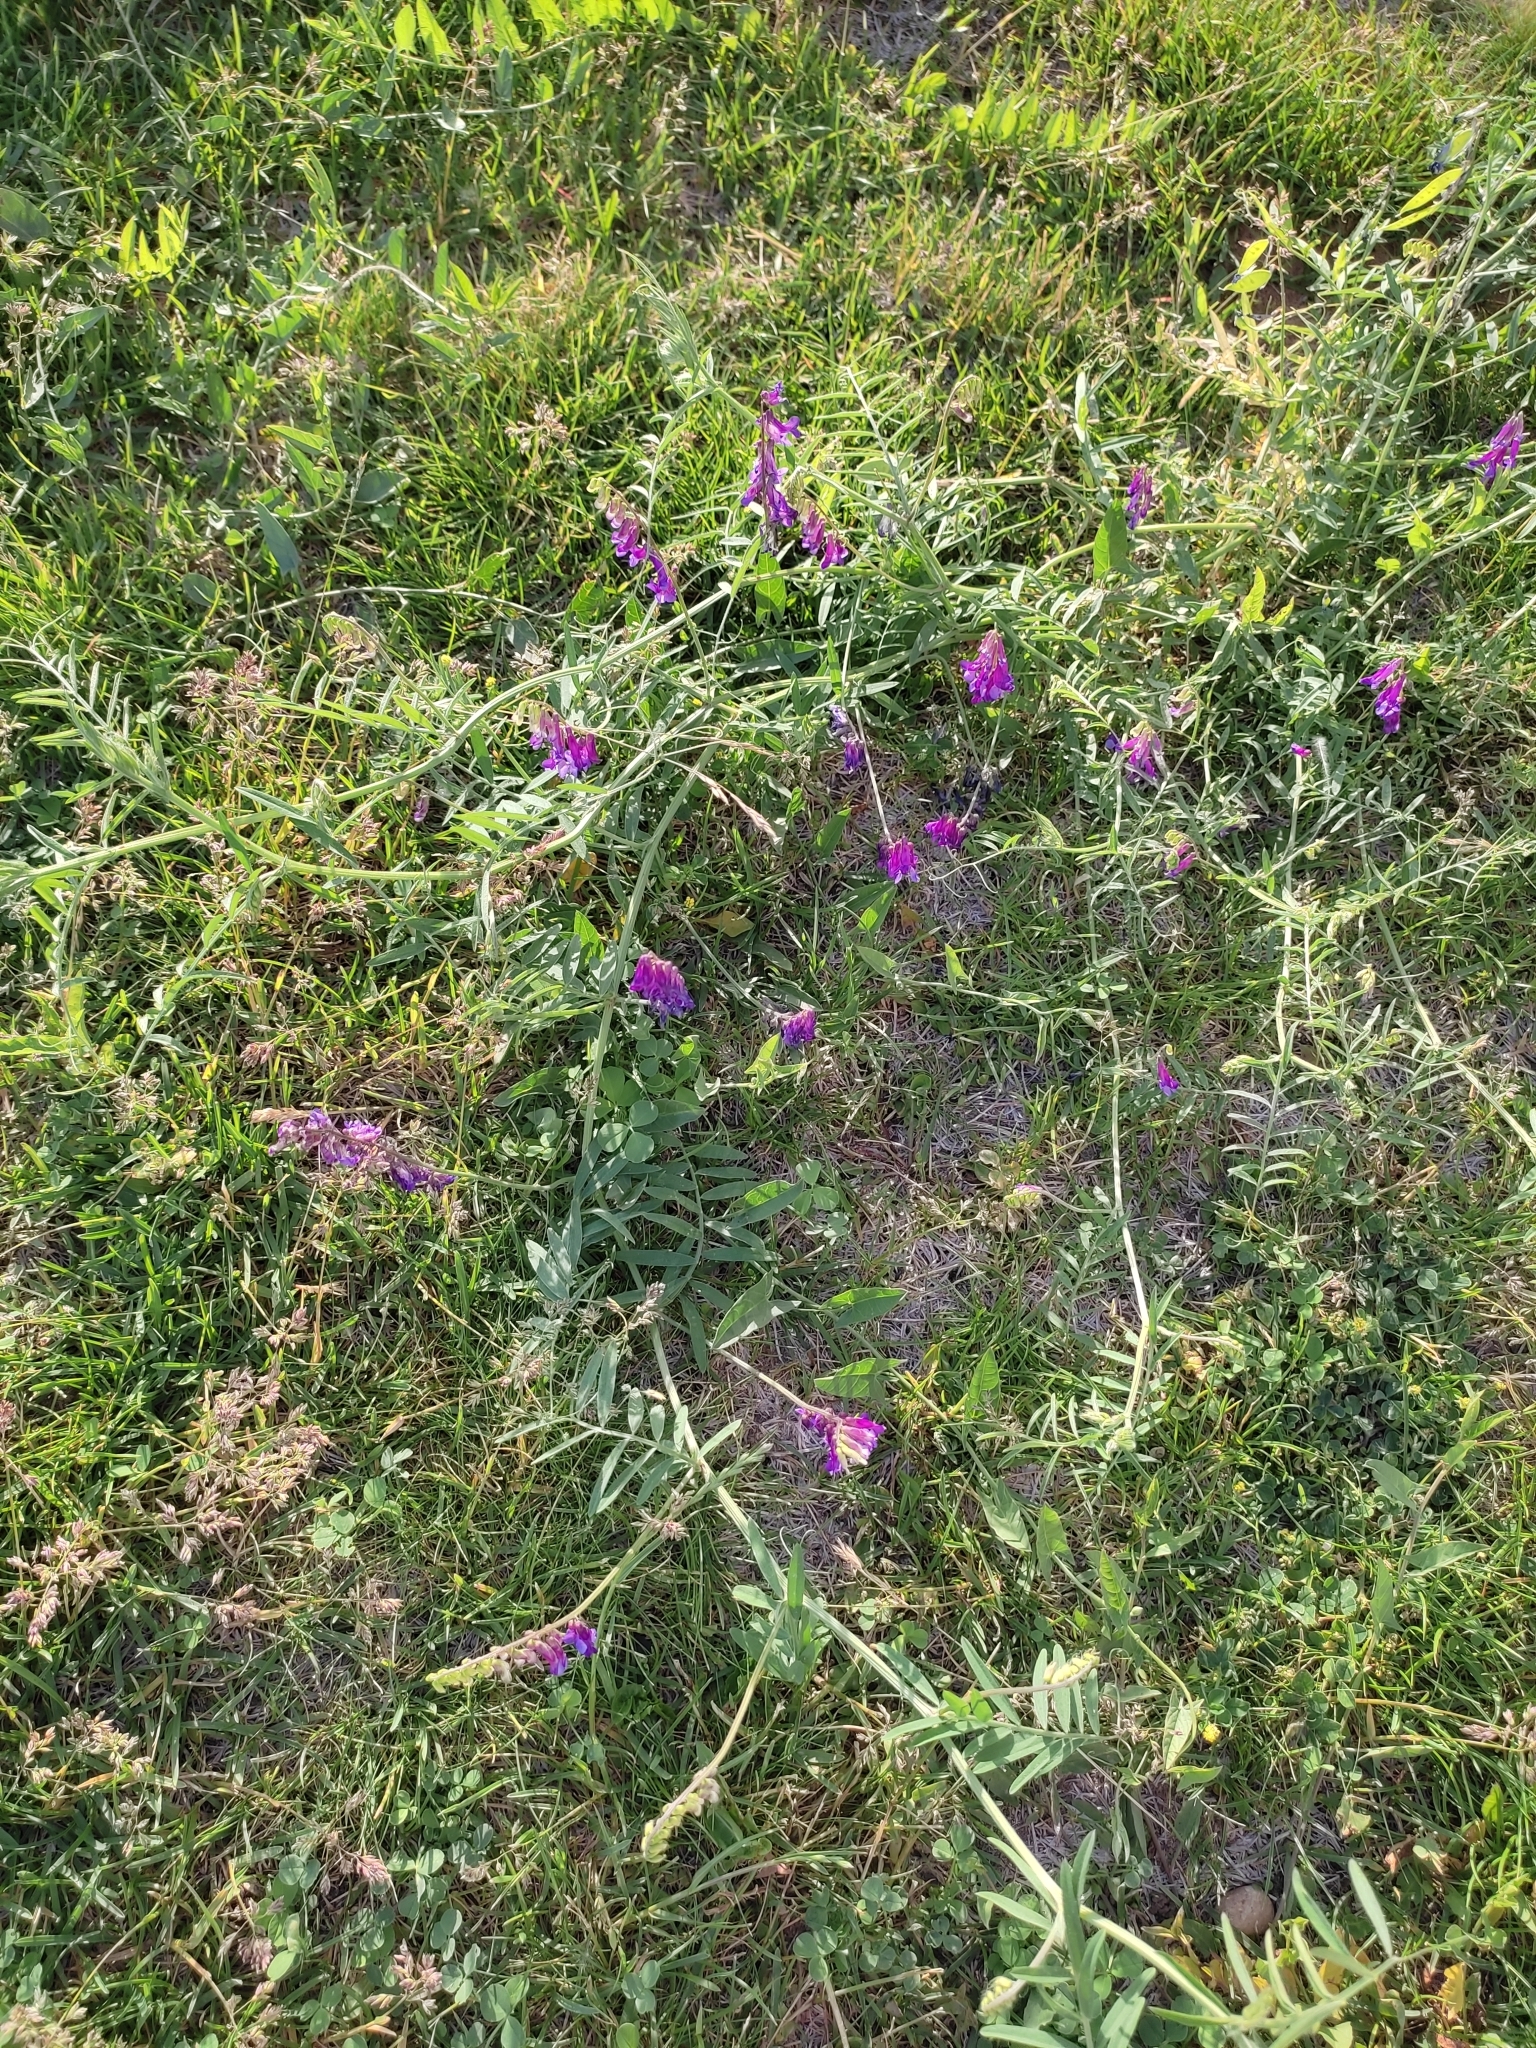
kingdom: Plantae
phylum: Tracheophyta
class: Magnoliopsida
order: Fabales
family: Fabaceae
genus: Vicia
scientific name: Vicia villosa
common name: Fodder vetch
